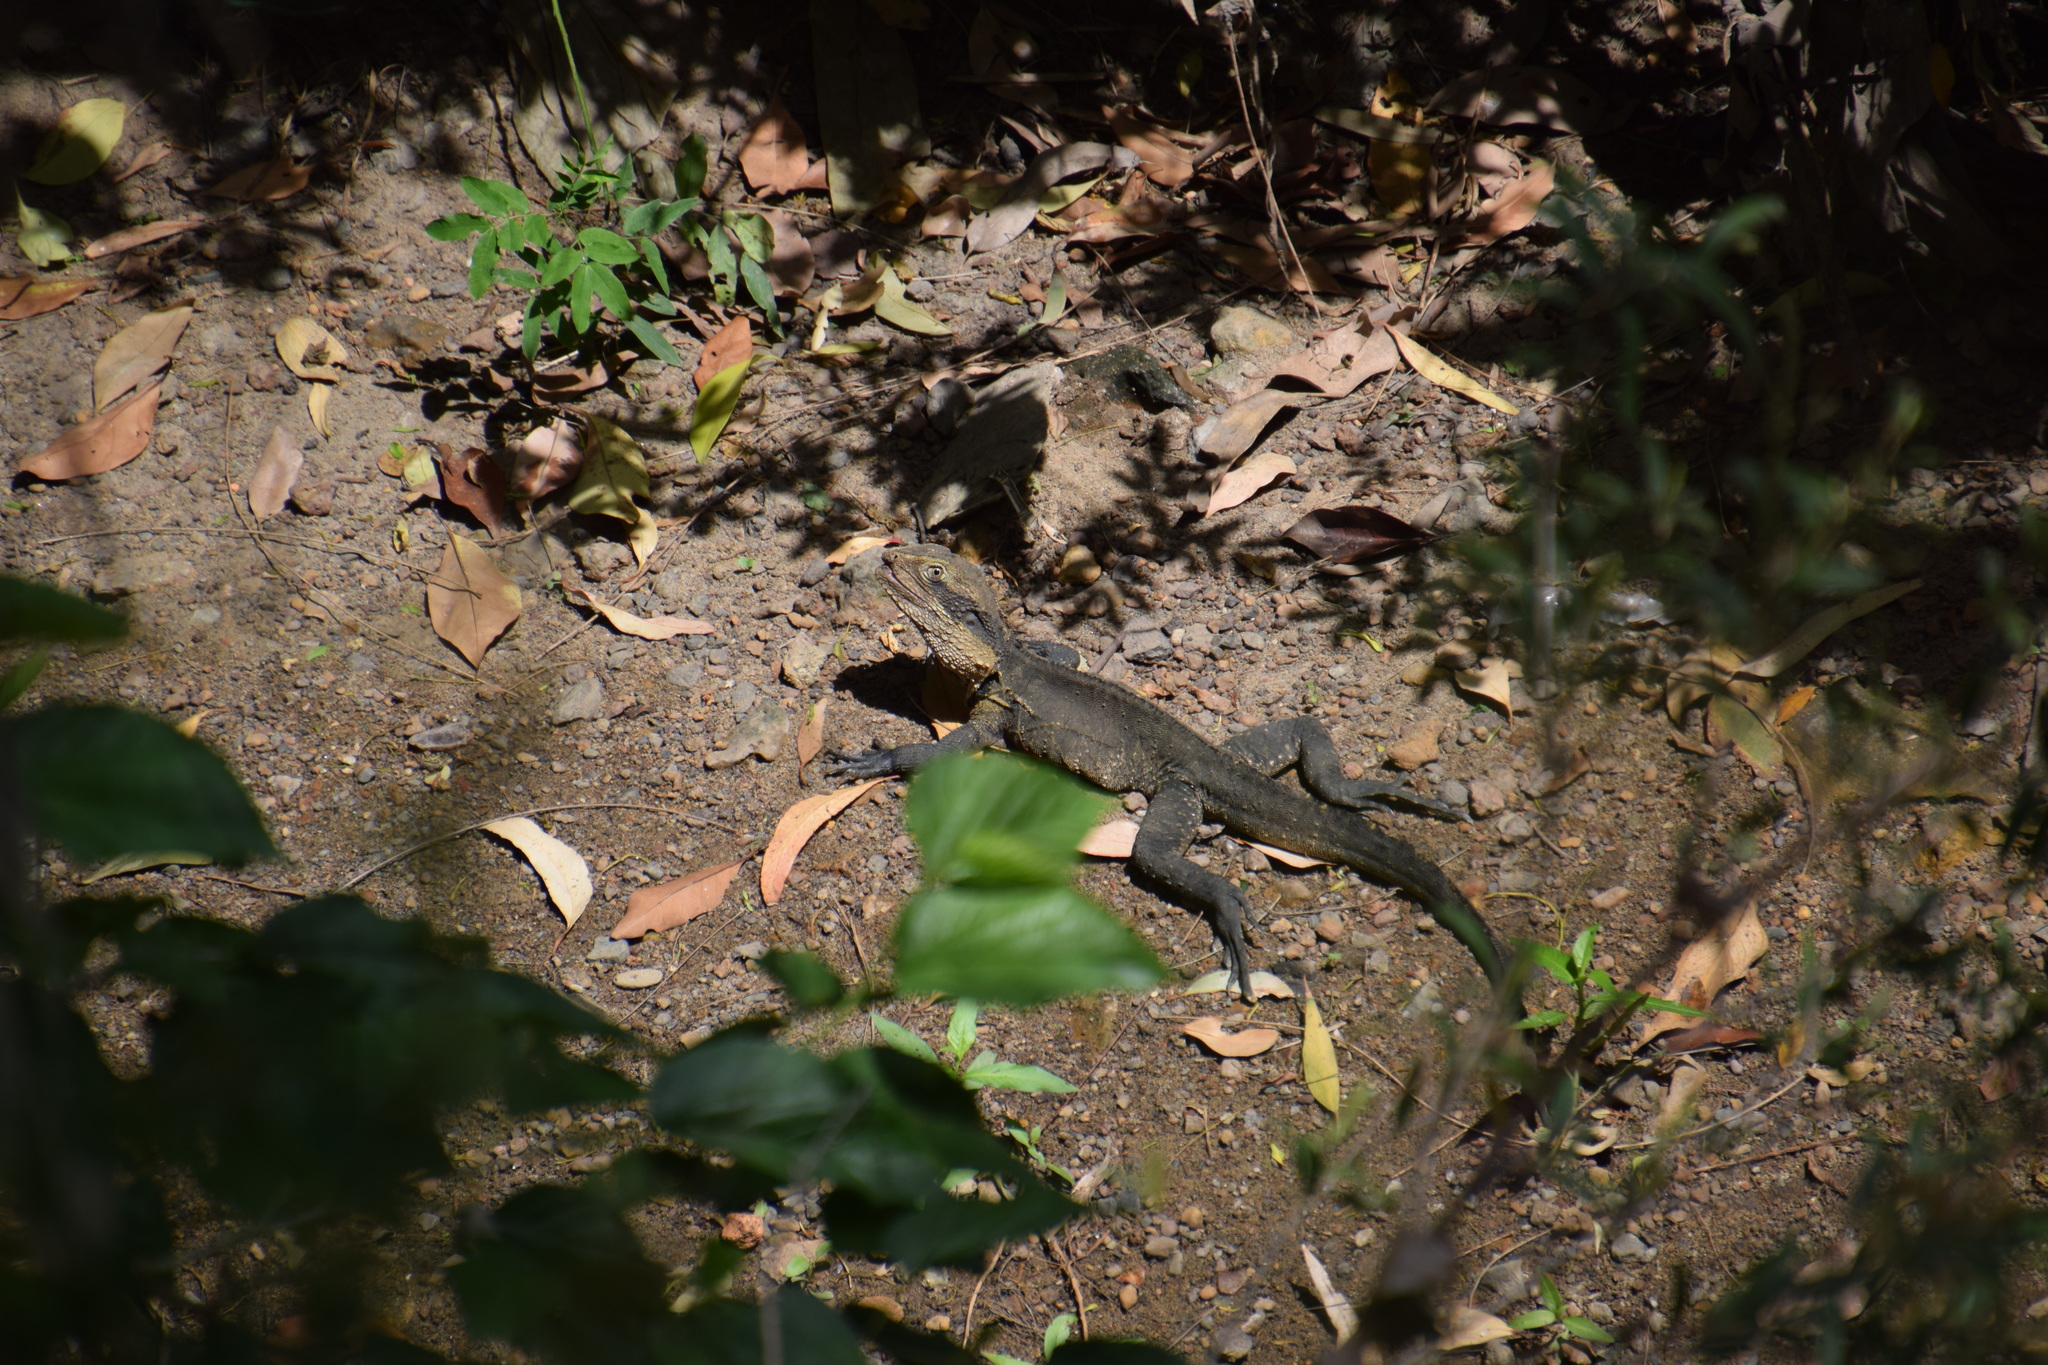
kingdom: Animalia
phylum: Chordata
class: Squamata
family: Agamidae
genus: Intellagama
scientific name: Intellagama lesueurii
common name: Eastern water dragon
